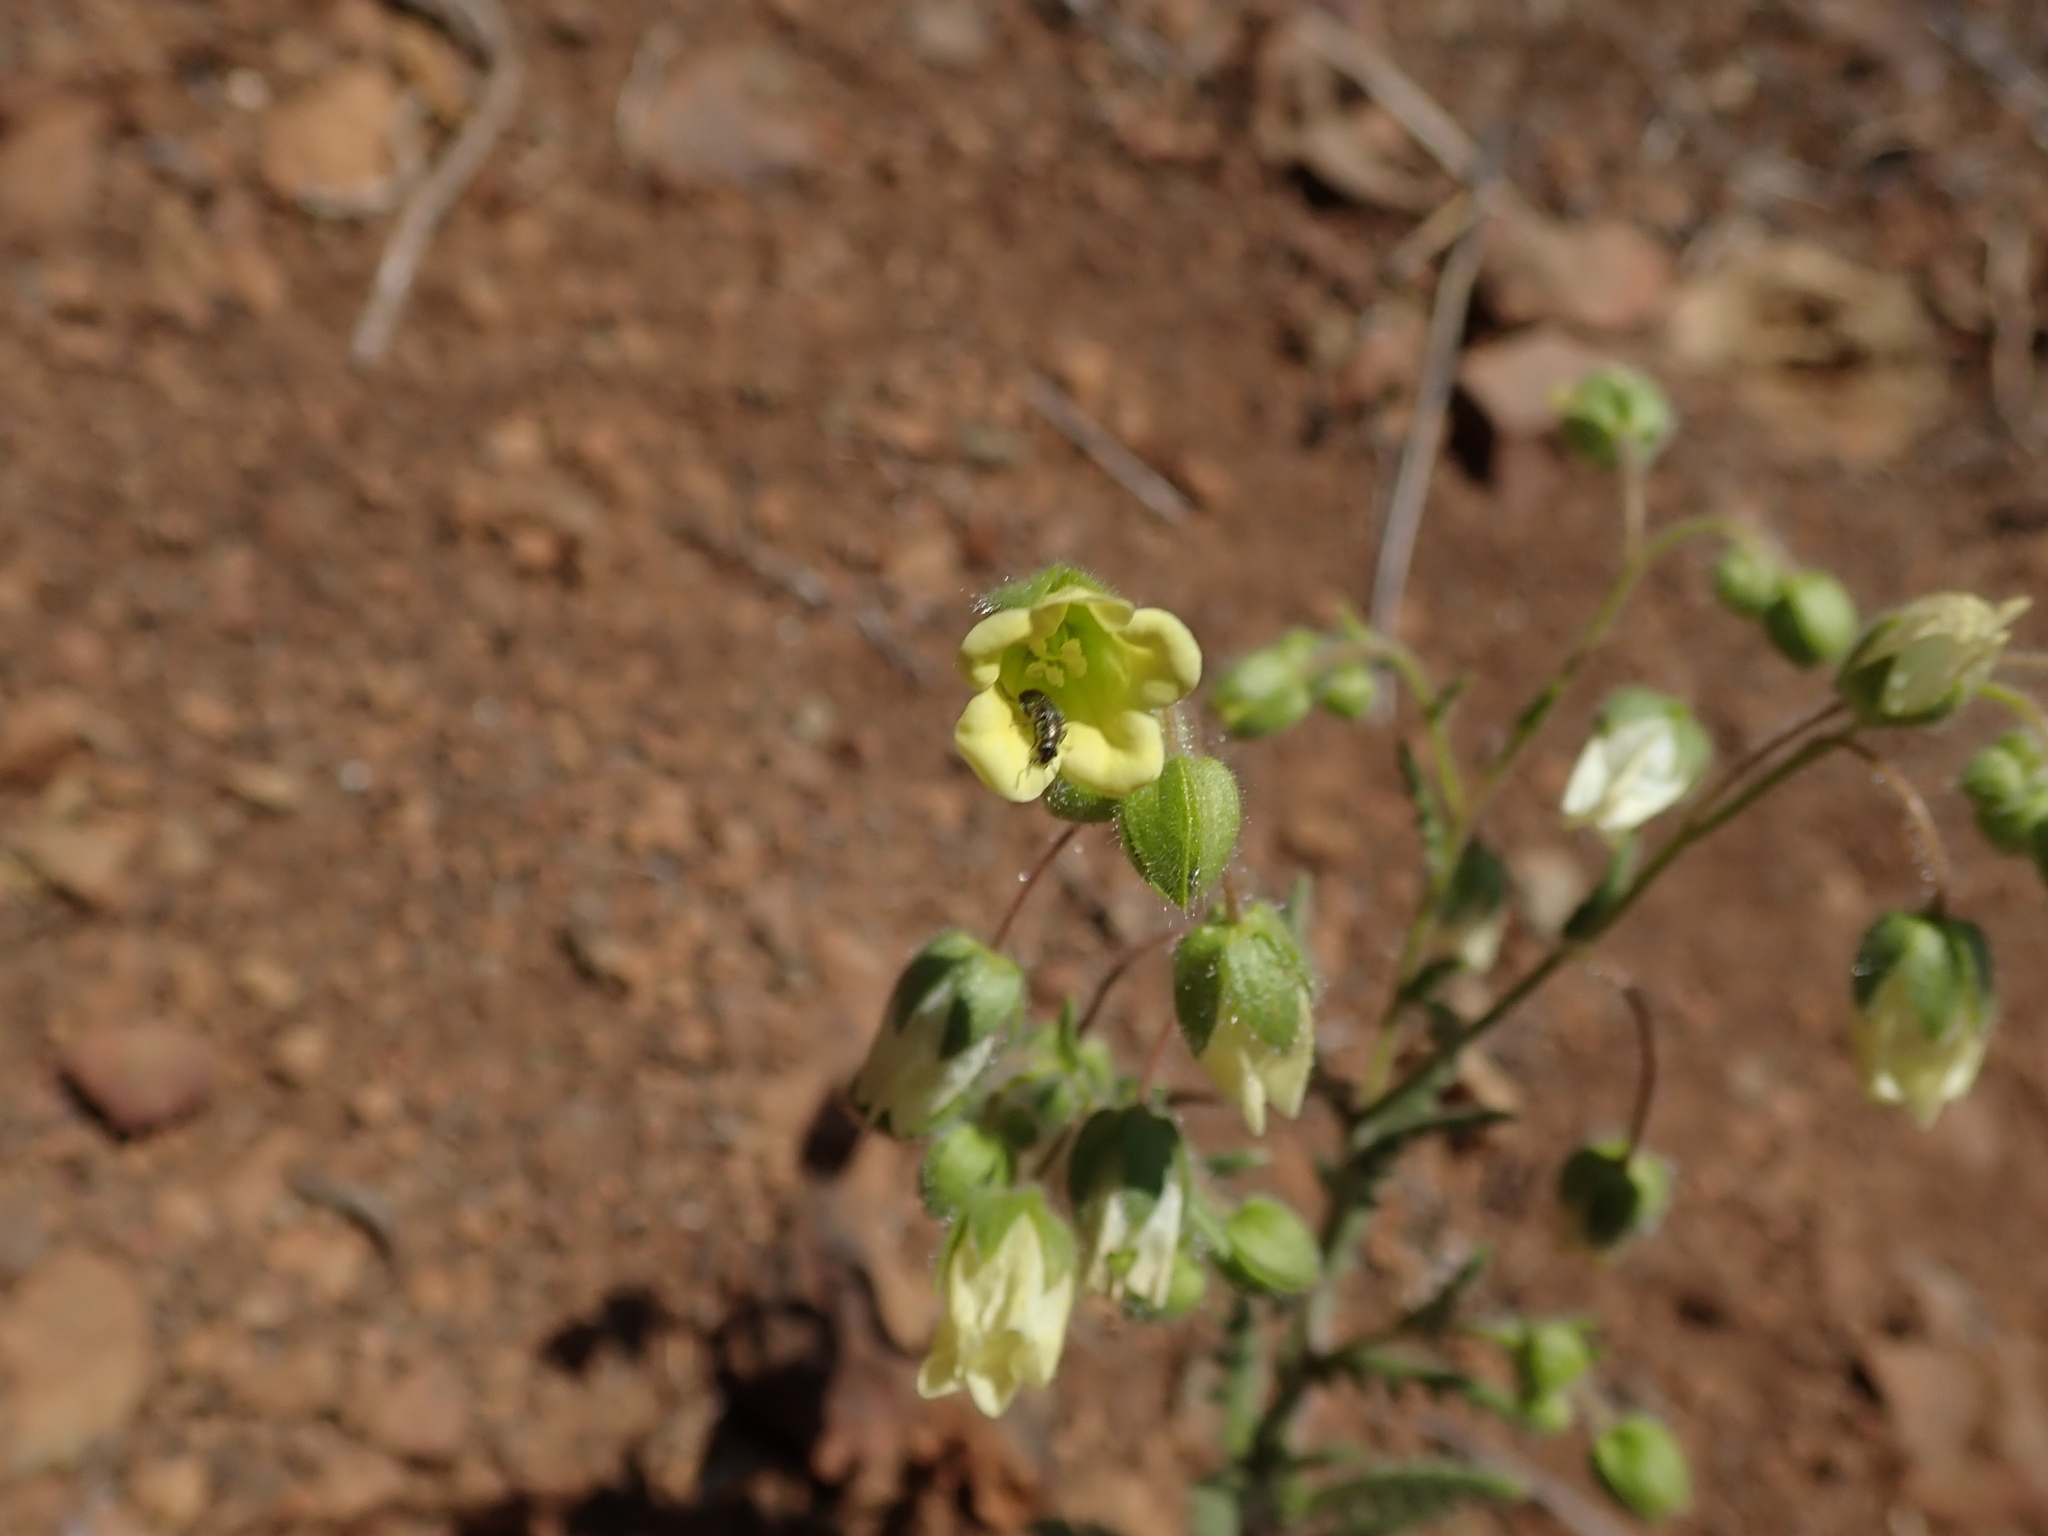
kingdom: Plantae
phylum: Tracheophyta
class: Magnoliopsida
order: Boraginales
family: Hydrophyllaceae
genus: Emmenanthe
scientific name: Emmenanthe penduliflora
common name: Whispering-bells
